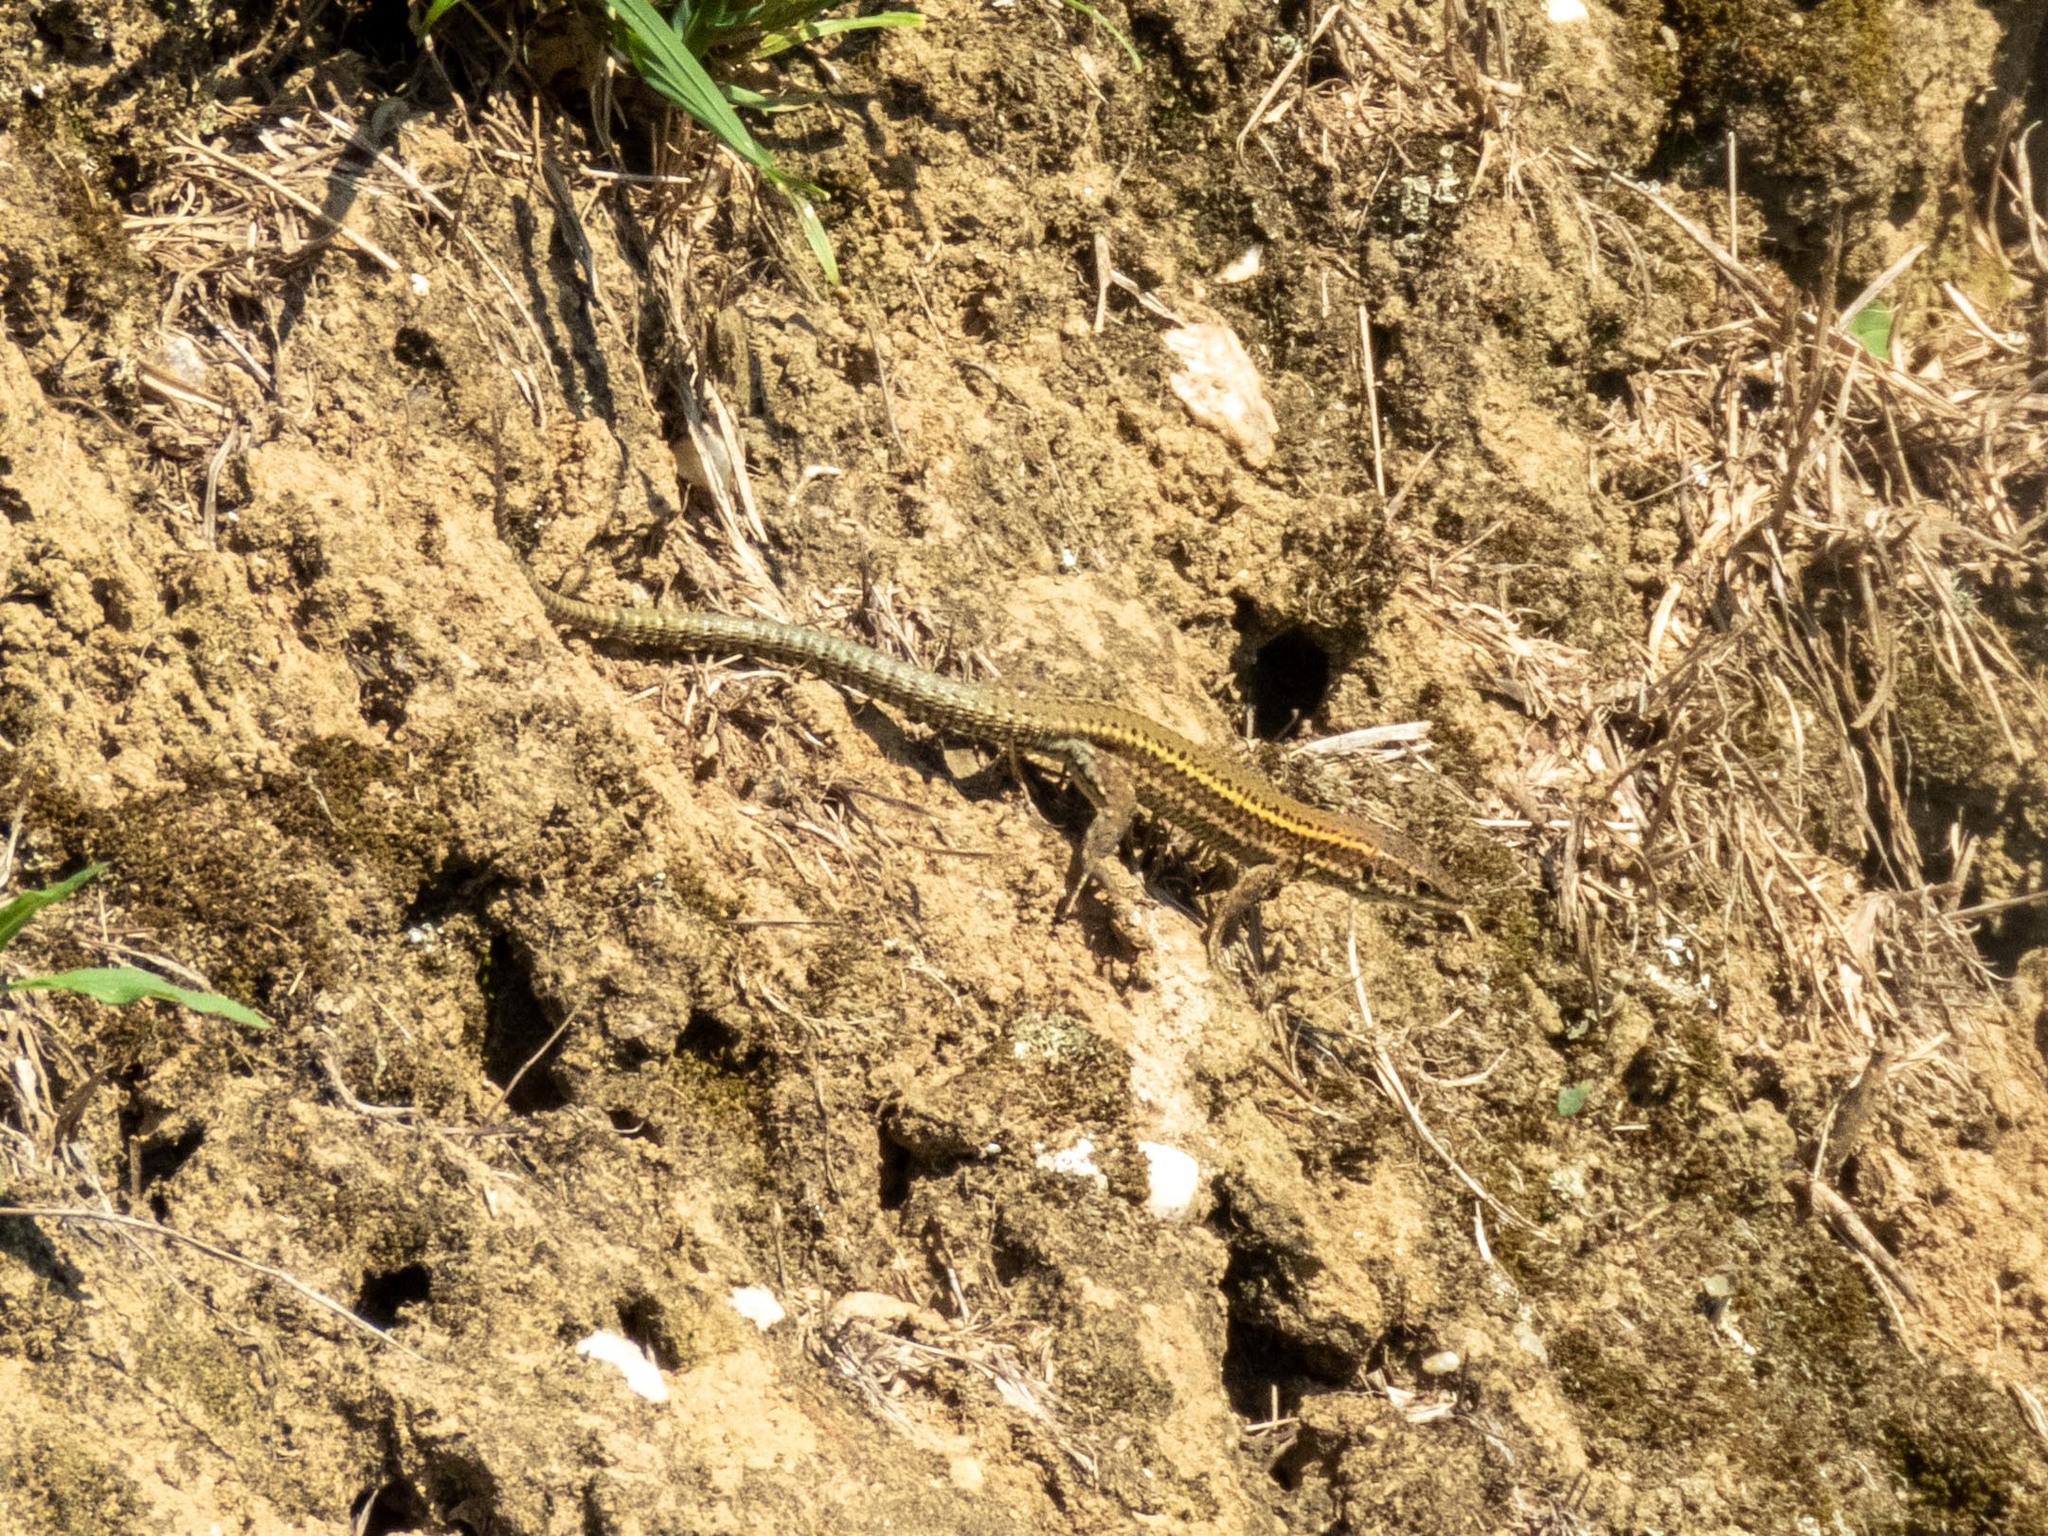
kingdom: Animalia
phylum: Chordata
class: Squamata
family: Lacertidae
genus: Podarcis
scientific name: Podarcis bocagei
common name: Bocage's wall lizard
